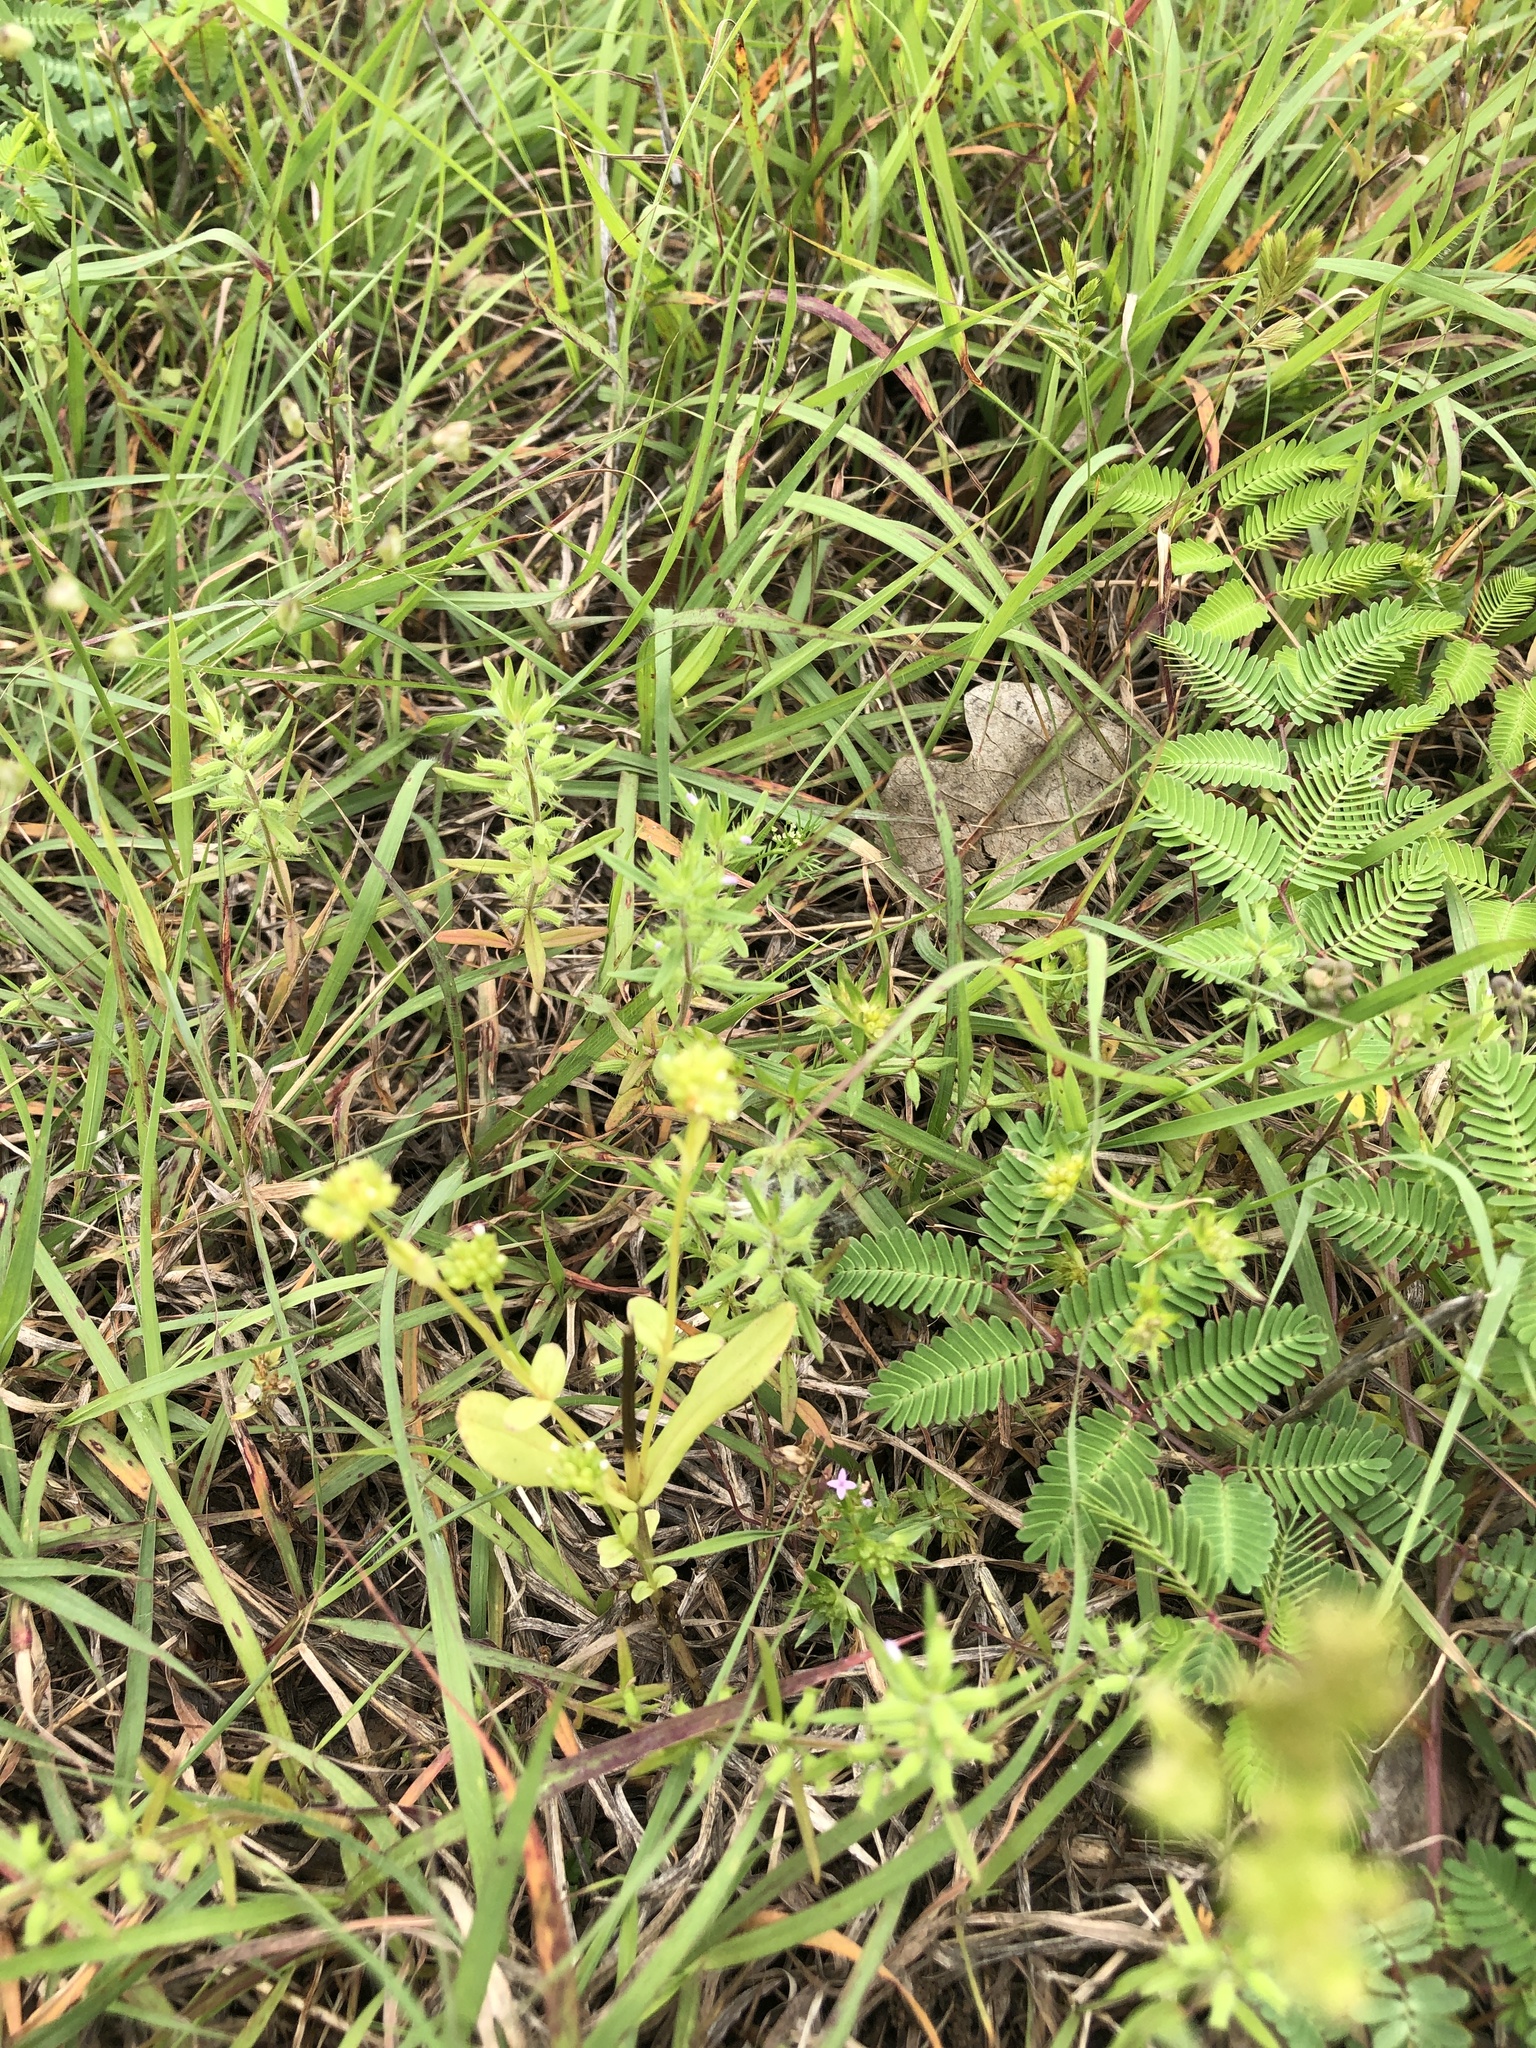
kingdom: Plantae
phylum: Tracheophyta
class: Magnoliopsida
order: Lamiales
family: Lamiaceae
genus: Hedeoma
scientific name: Hedeoma hispida
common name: Mock pennyroyal
